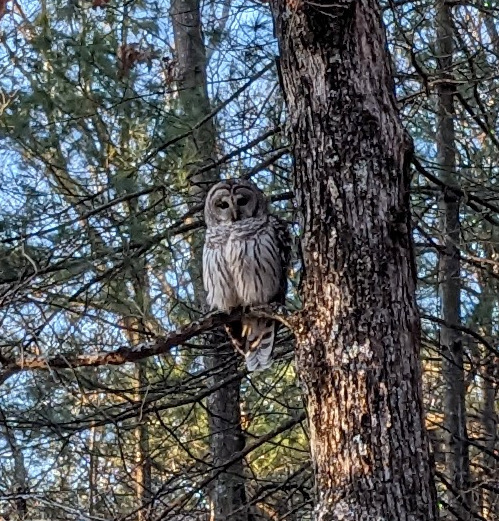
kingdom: Animalia
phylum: Chordata
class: Aves
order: Strigiformes
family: Strigidae
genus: Strix
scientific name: Strix varia
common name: Barred owl
